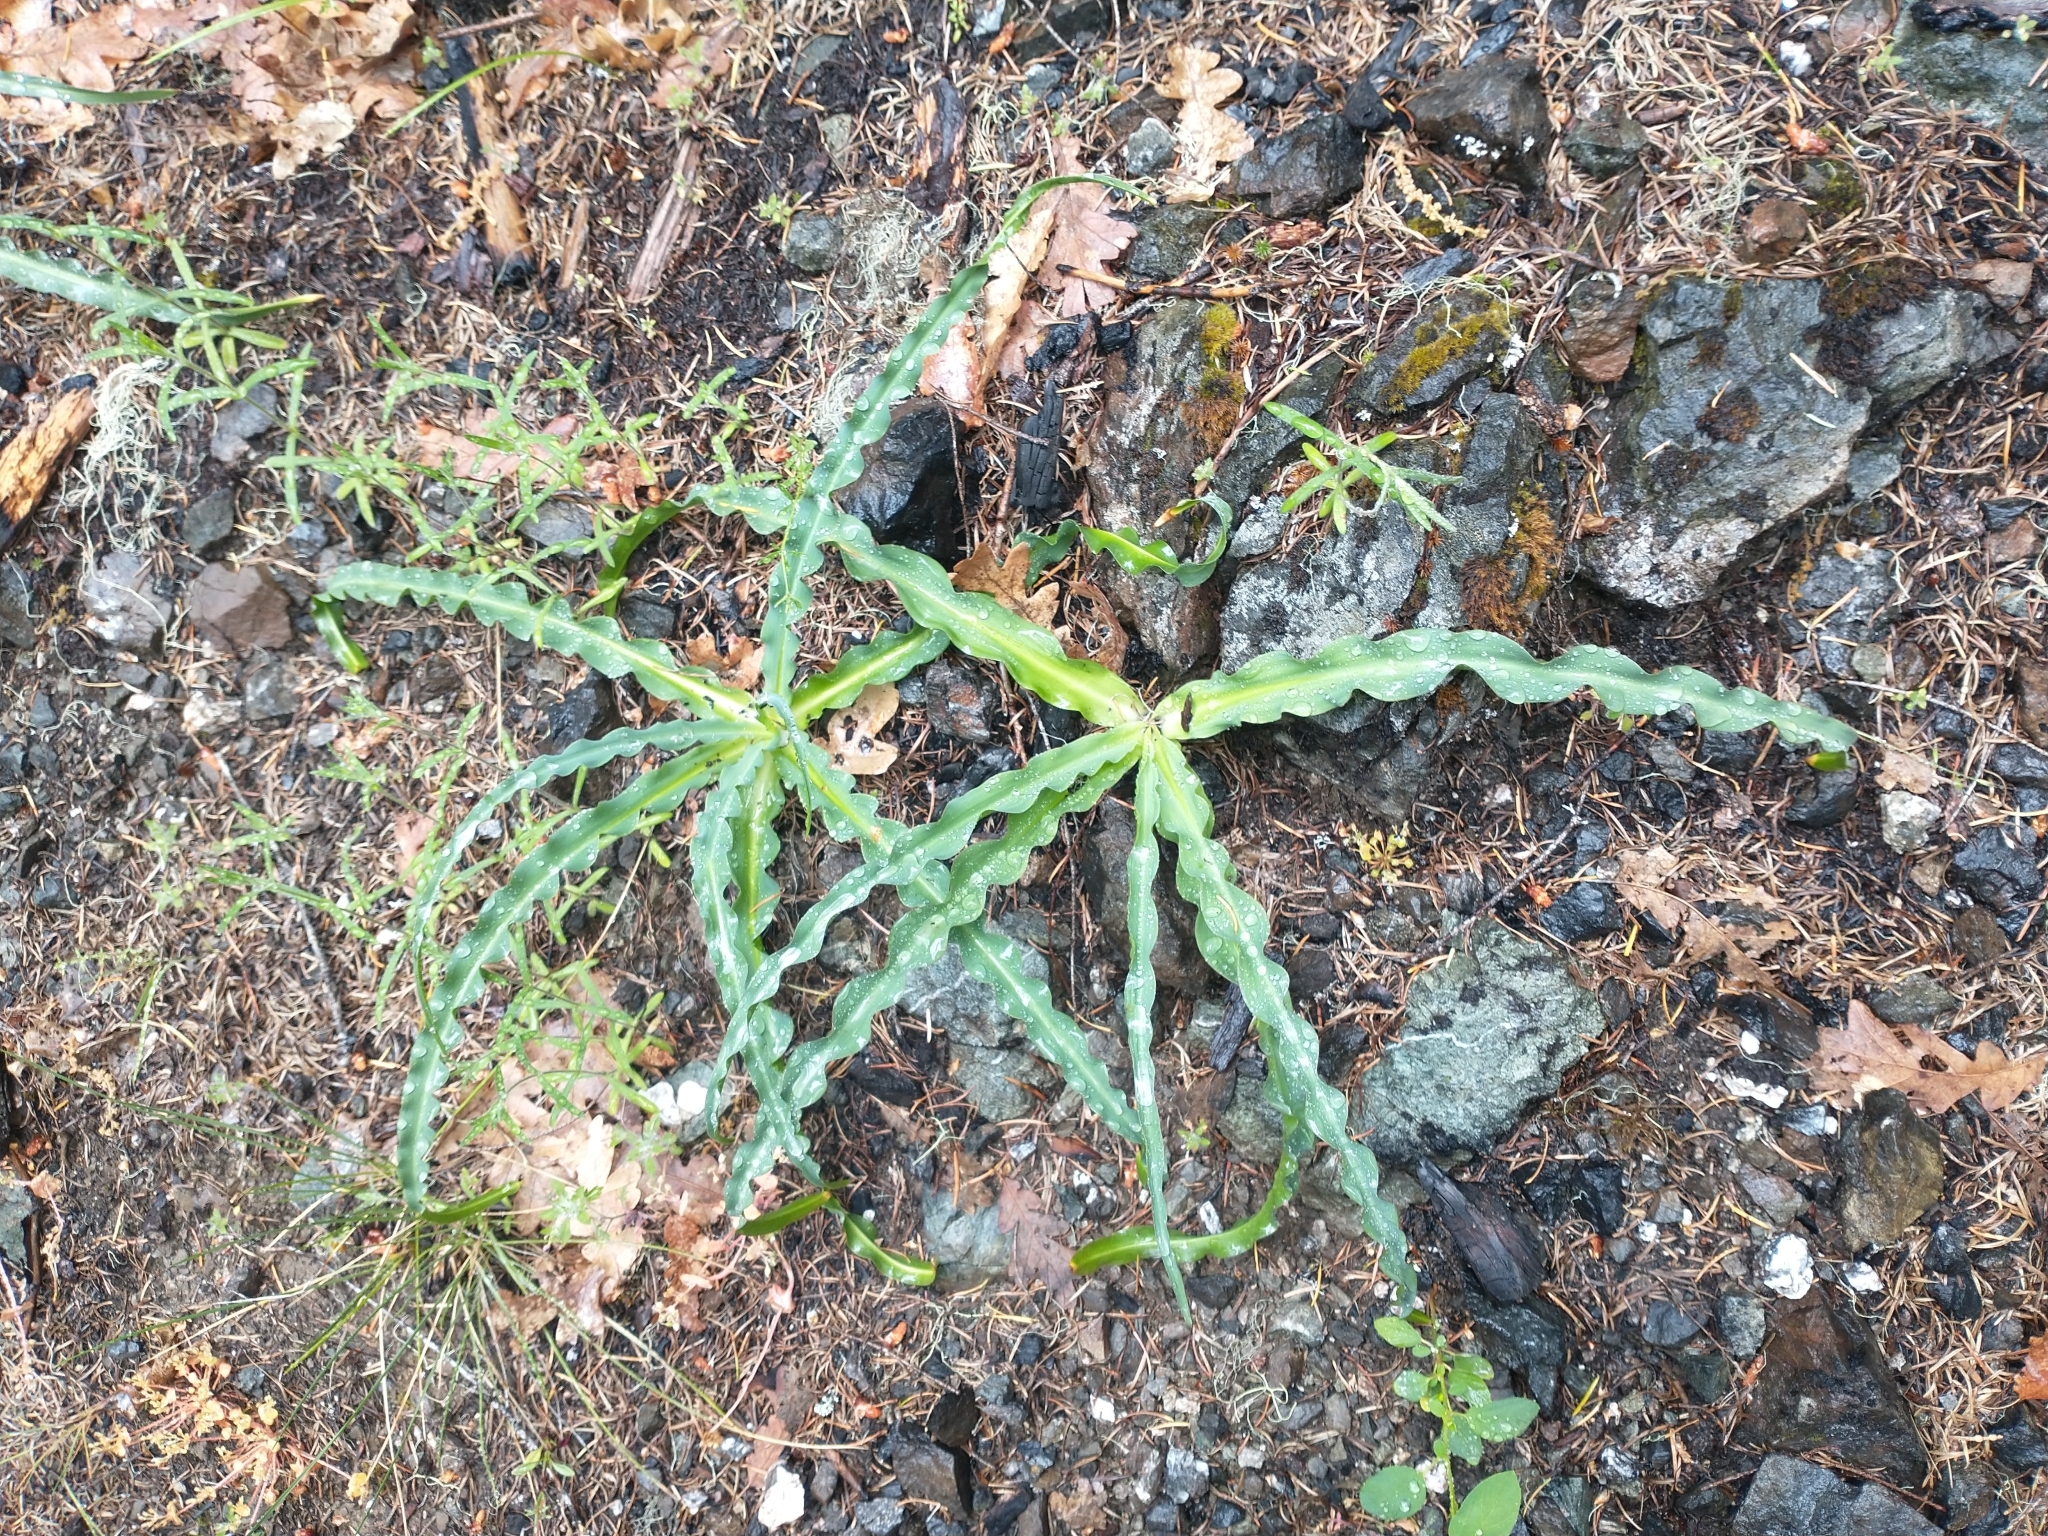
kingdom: Plantae
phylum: Tracheophyta
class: Liliopsida
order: Asparagales
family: Asparagaceae
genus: Chlorogalum
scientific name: Chlorogalum pomeridianum
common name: Amole
